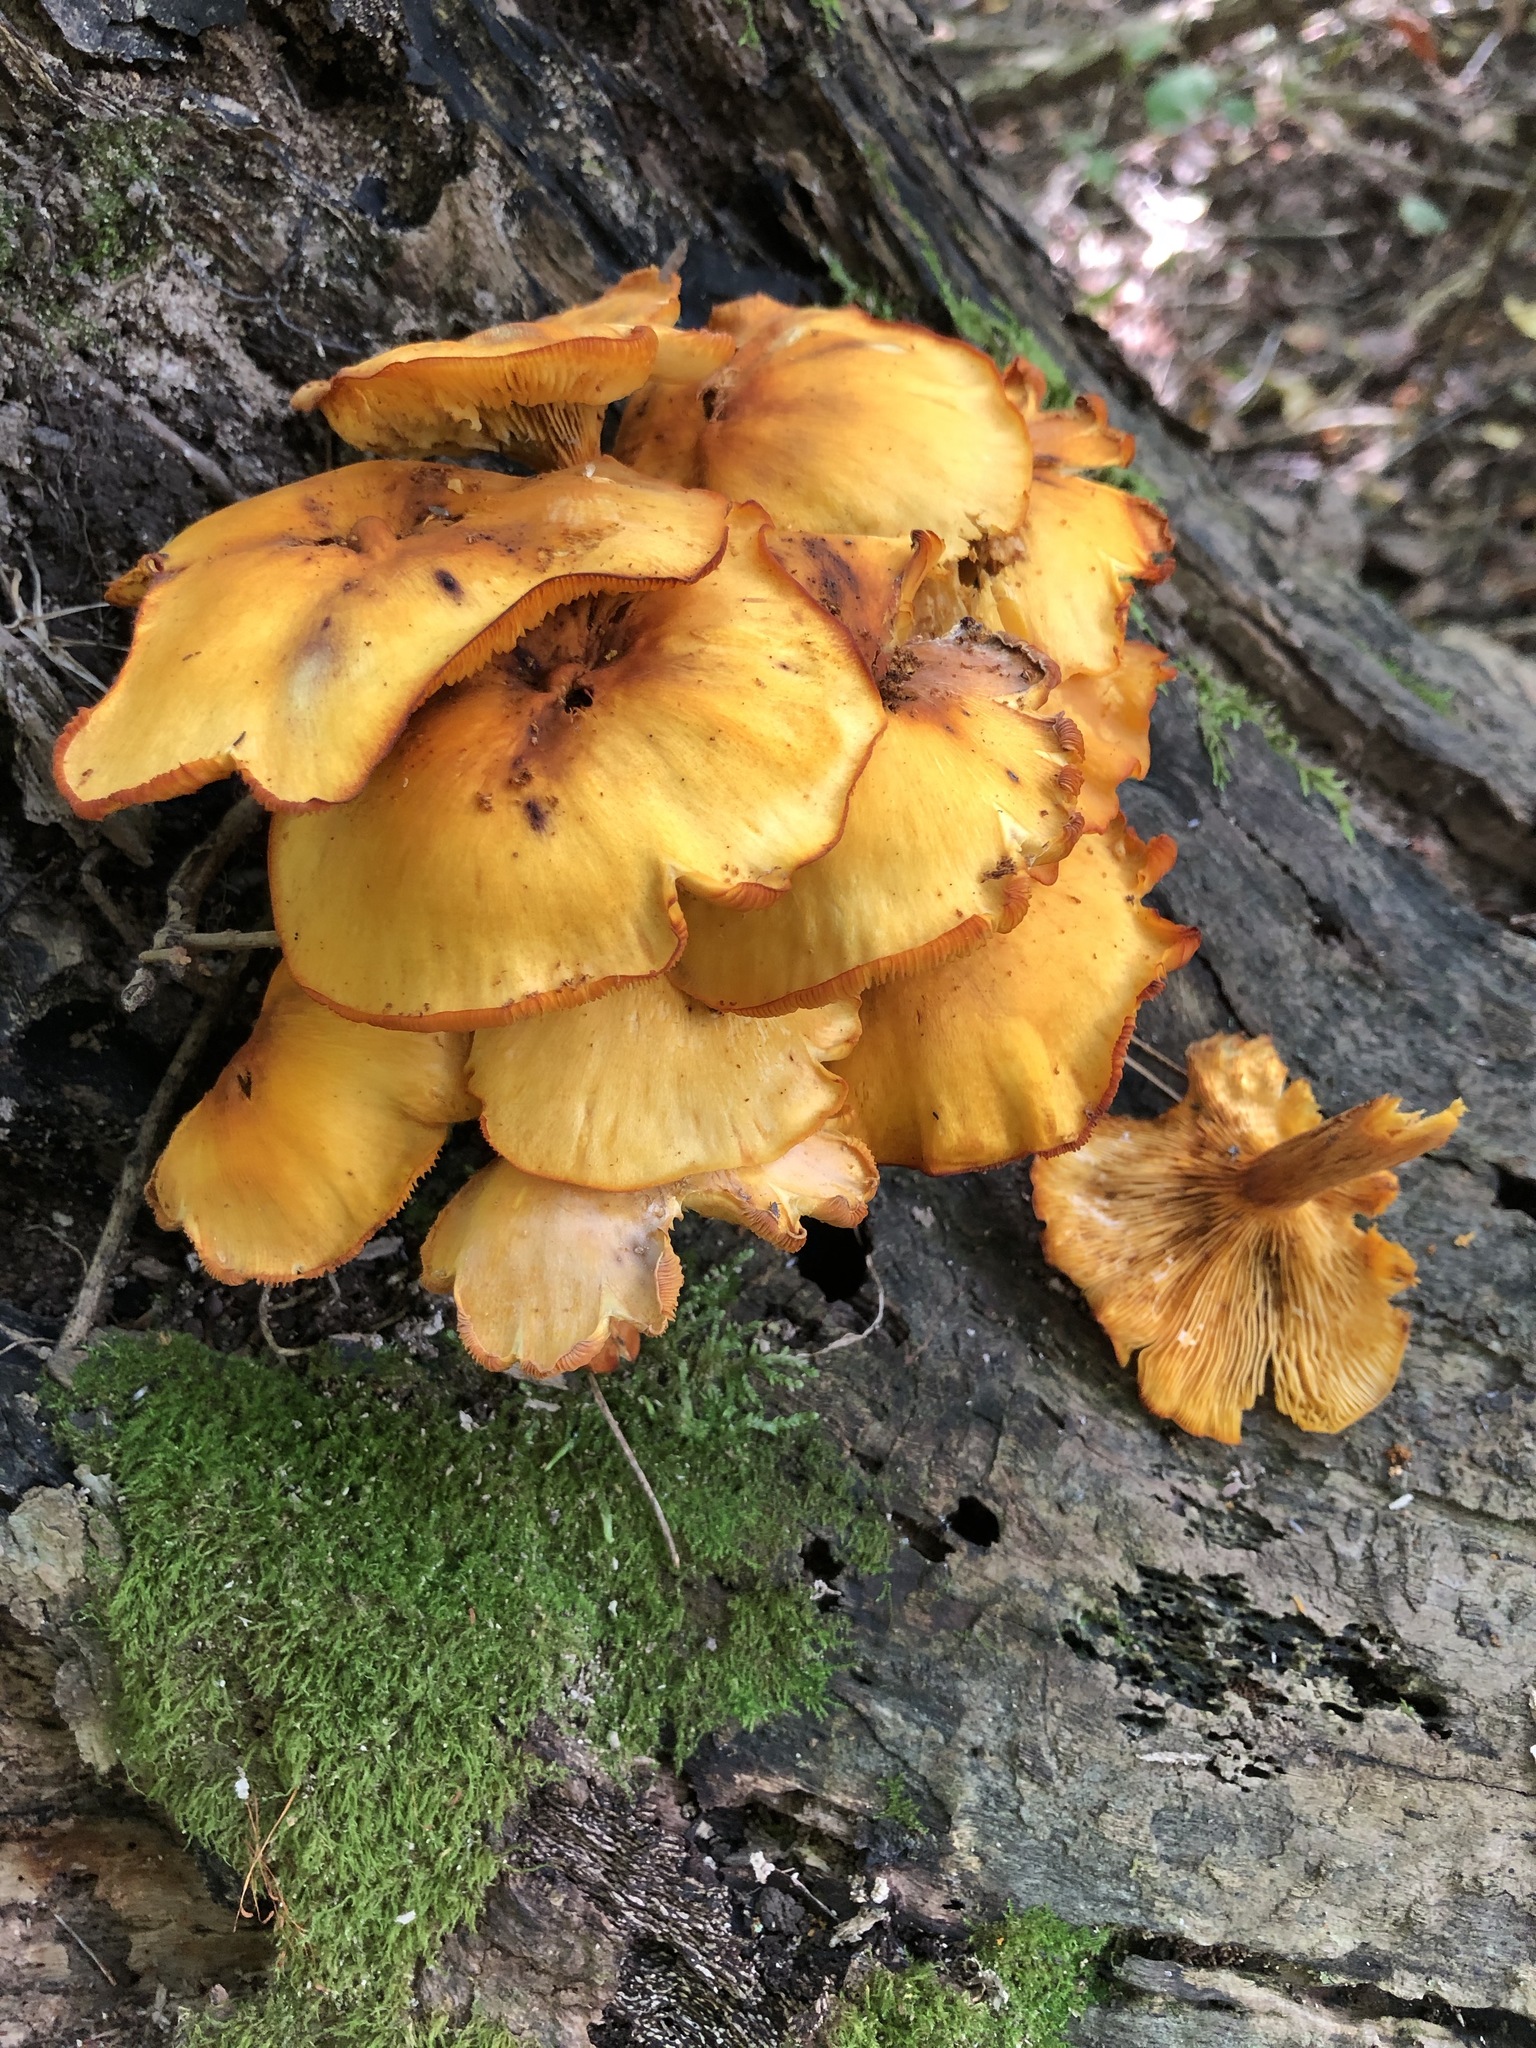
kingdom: Fungi
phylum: Basidiomycota
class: Agaricomycetes
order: Agaricales
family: Omphalotaceae
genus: Omphalotus
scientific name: Omphalotus illudens
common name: Jack o lantern
